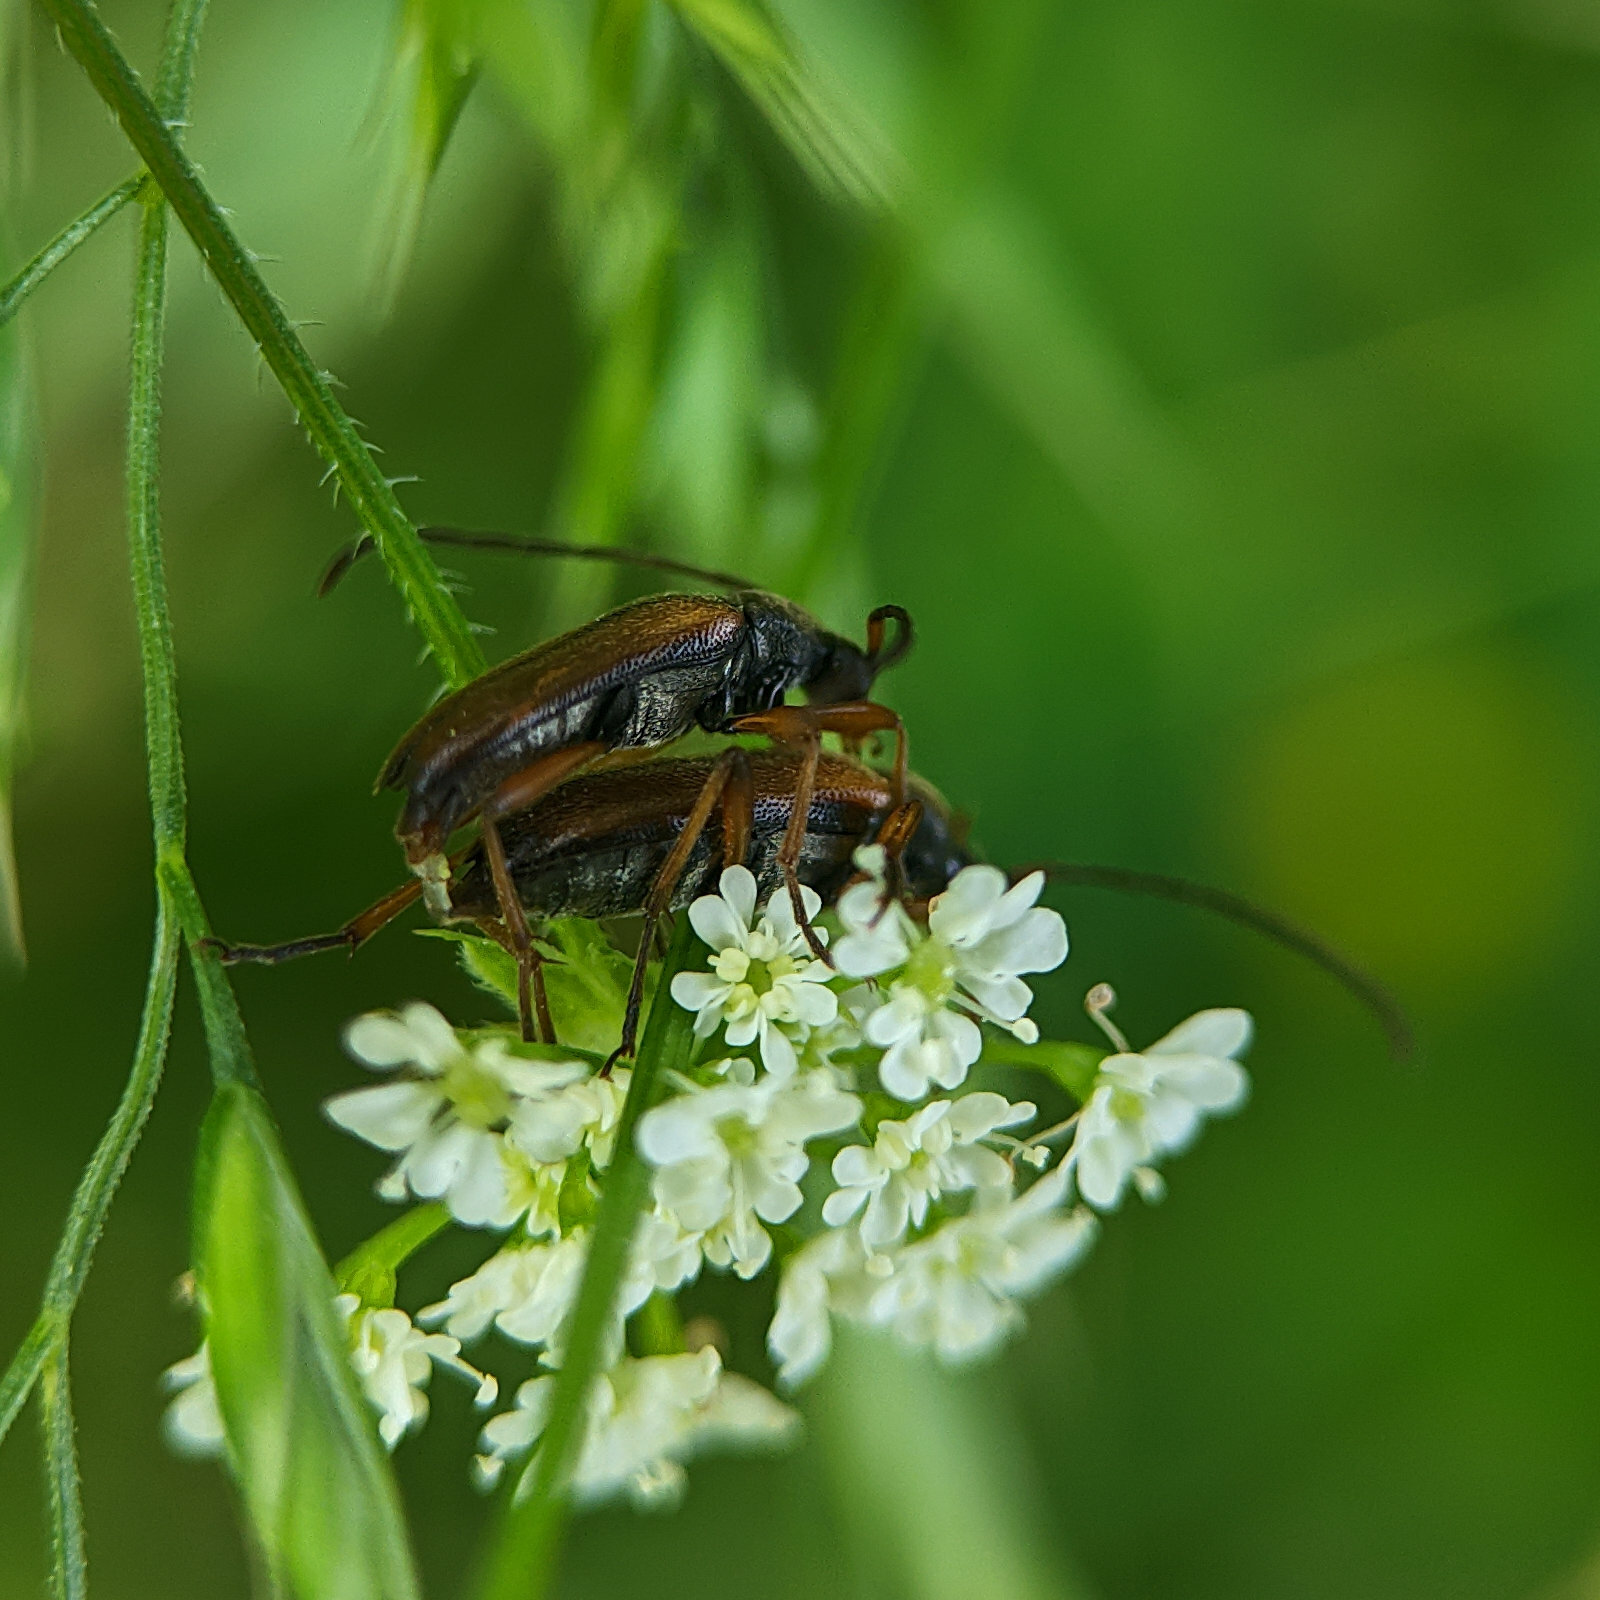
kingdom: Animalia
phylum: Arthropoda
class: Insecta
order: Coleoptera
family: Cerambycidae
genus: Alosterna
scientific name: Alosterna tabacicolor
